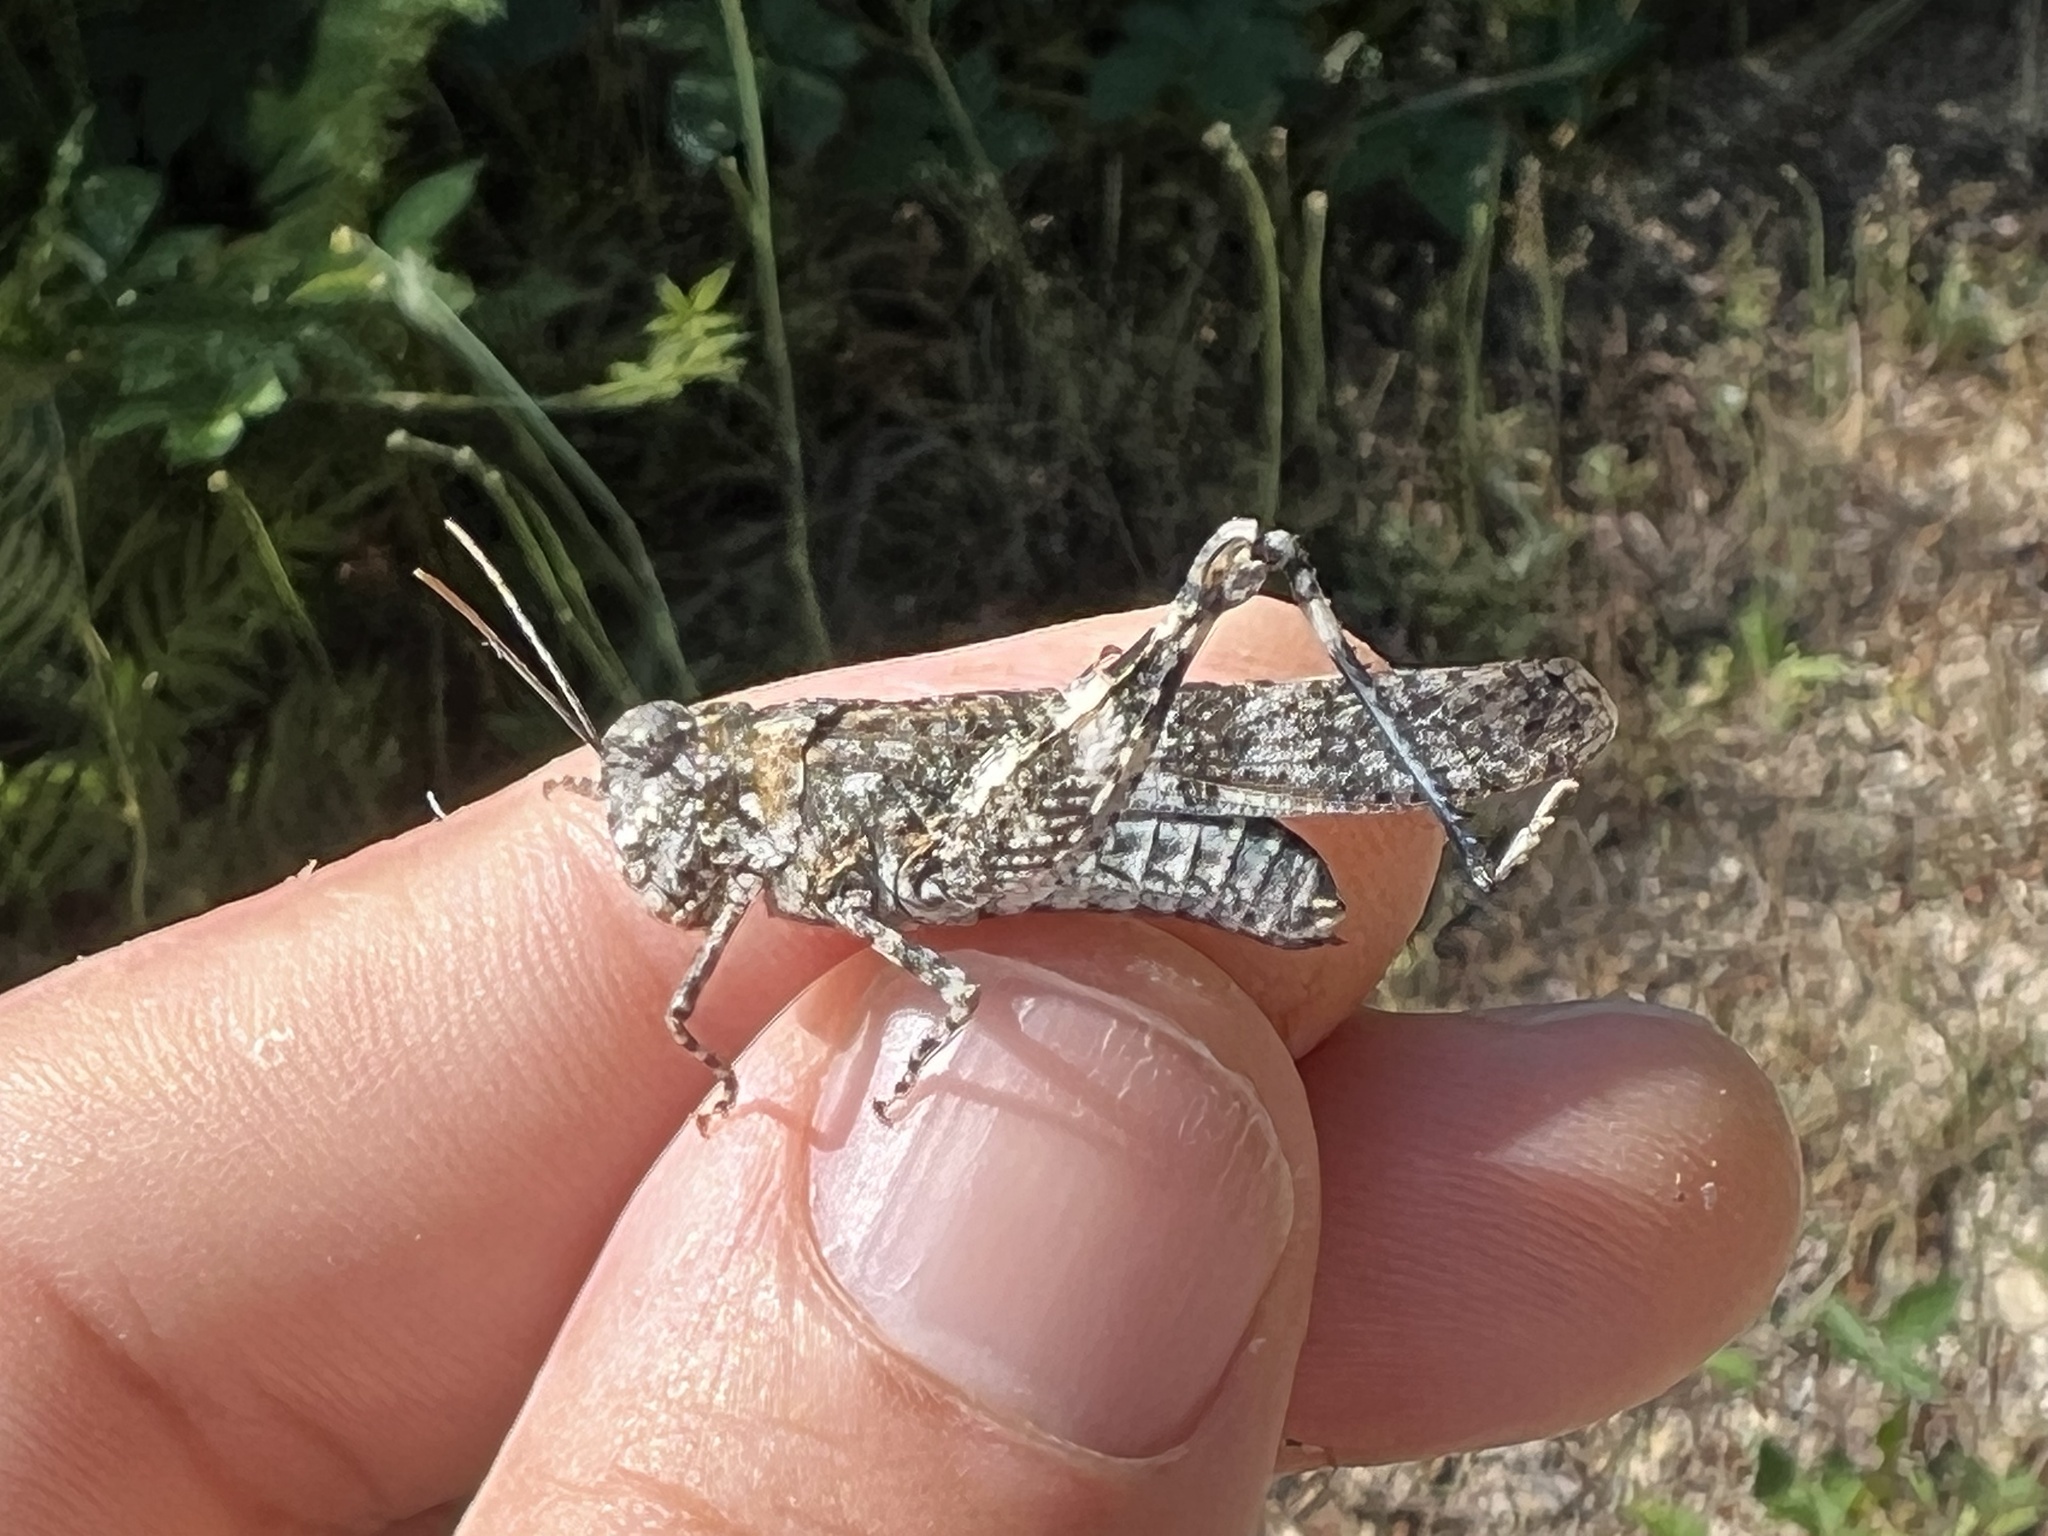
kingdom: Animalia
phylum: Arthropoda
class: Insecta
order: Orthoptera
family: Acrididae
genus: Oedipoda
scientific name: Oedipoda coerulea
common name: Iberian band-winged grasshopper
